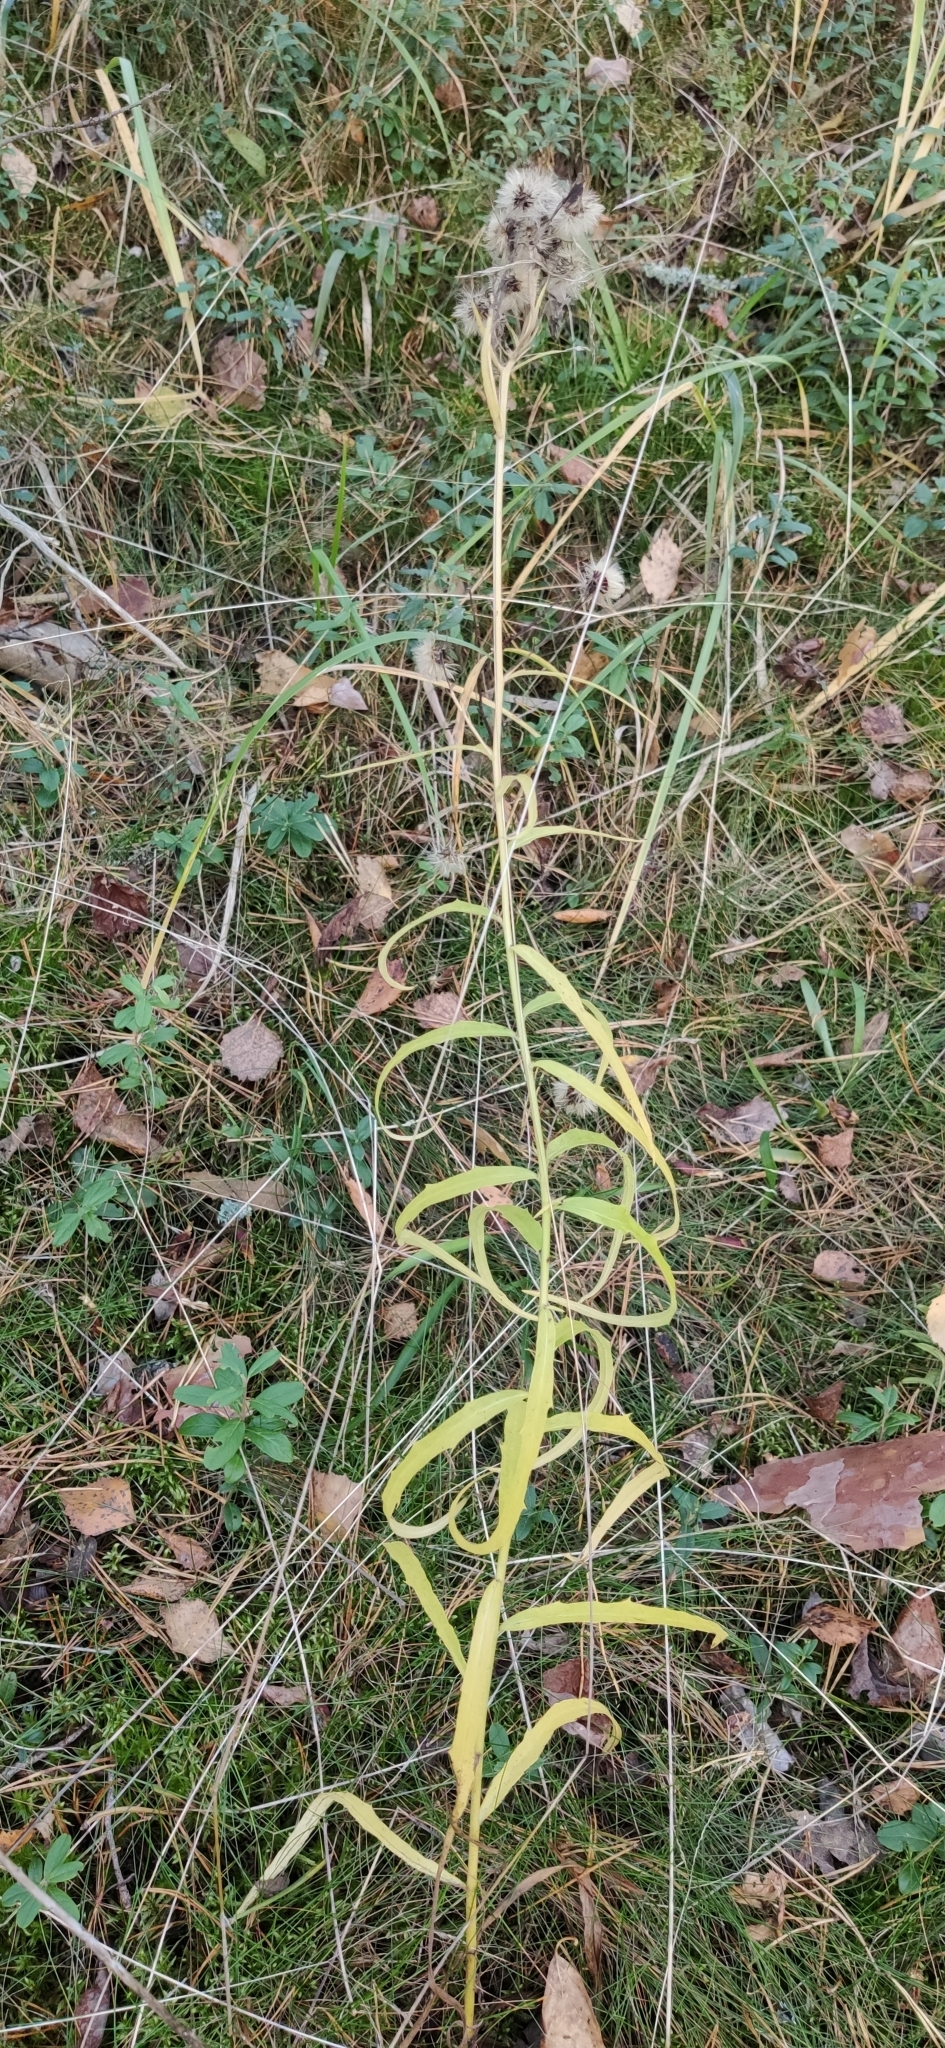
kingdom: Plantae
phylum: Tracheophyta
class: Magnoliopsida
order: Asterales
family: Asteraceae
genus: Hieracium
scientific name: Hieracium umbellatum
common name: Northern hawkweed
